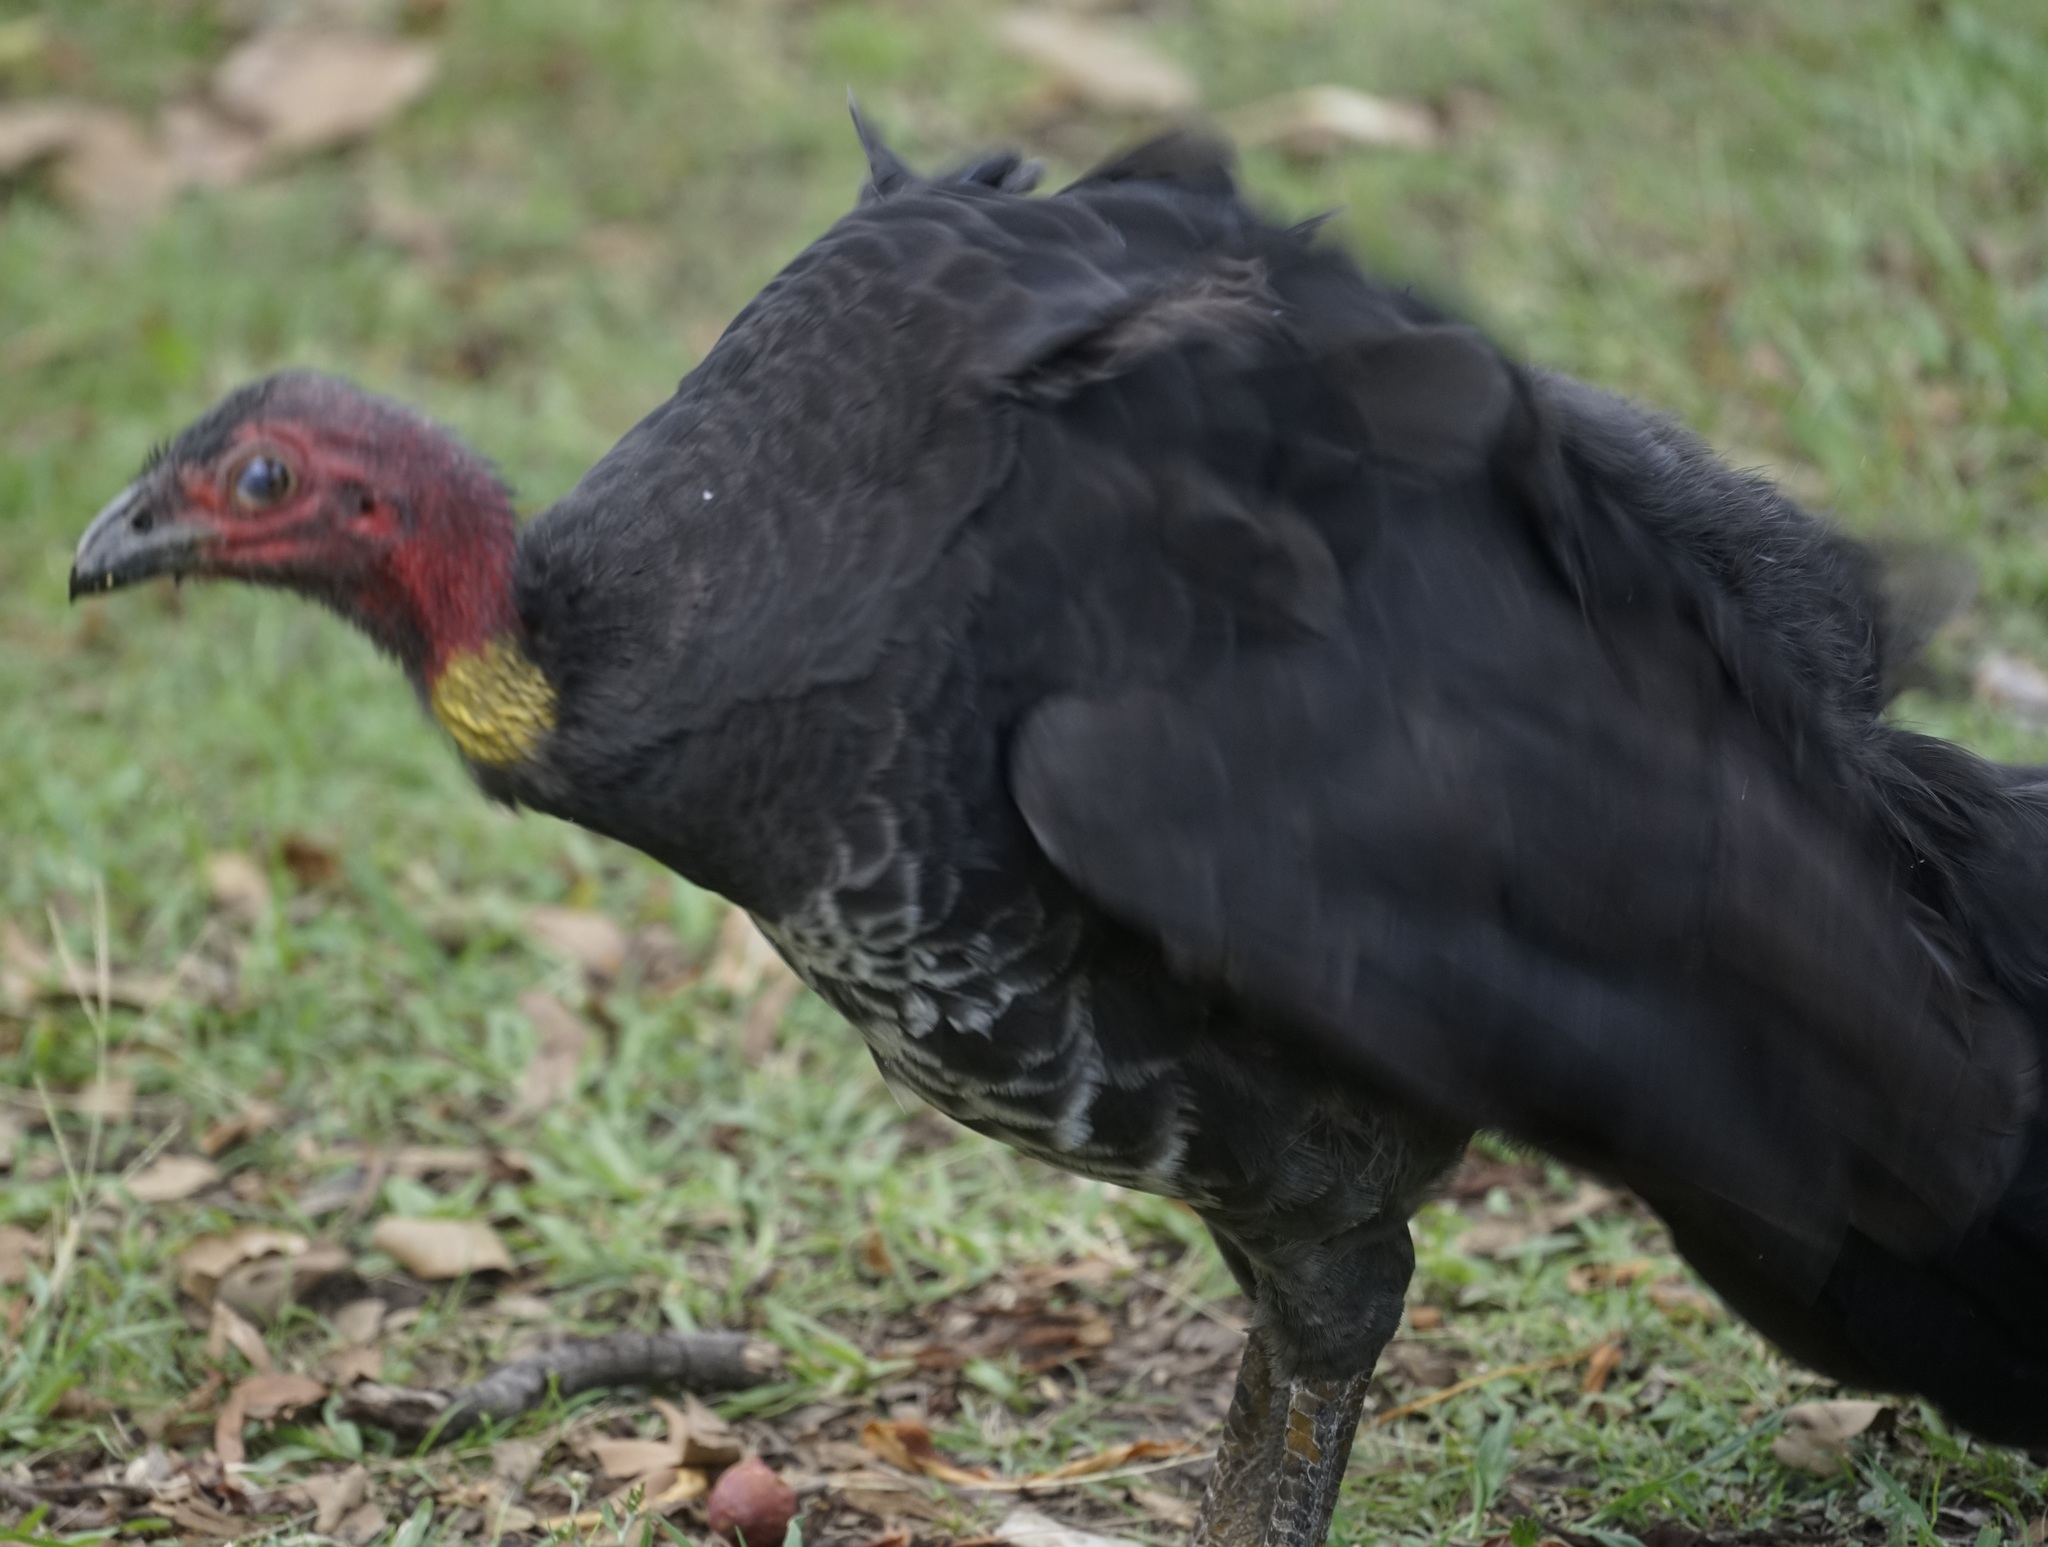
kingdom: Animalia
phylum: Chordata
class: Aves
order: Galliformes
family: Megapodiidae
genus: Alectura
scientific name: Alectura lathami
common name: Australian brushturkey
